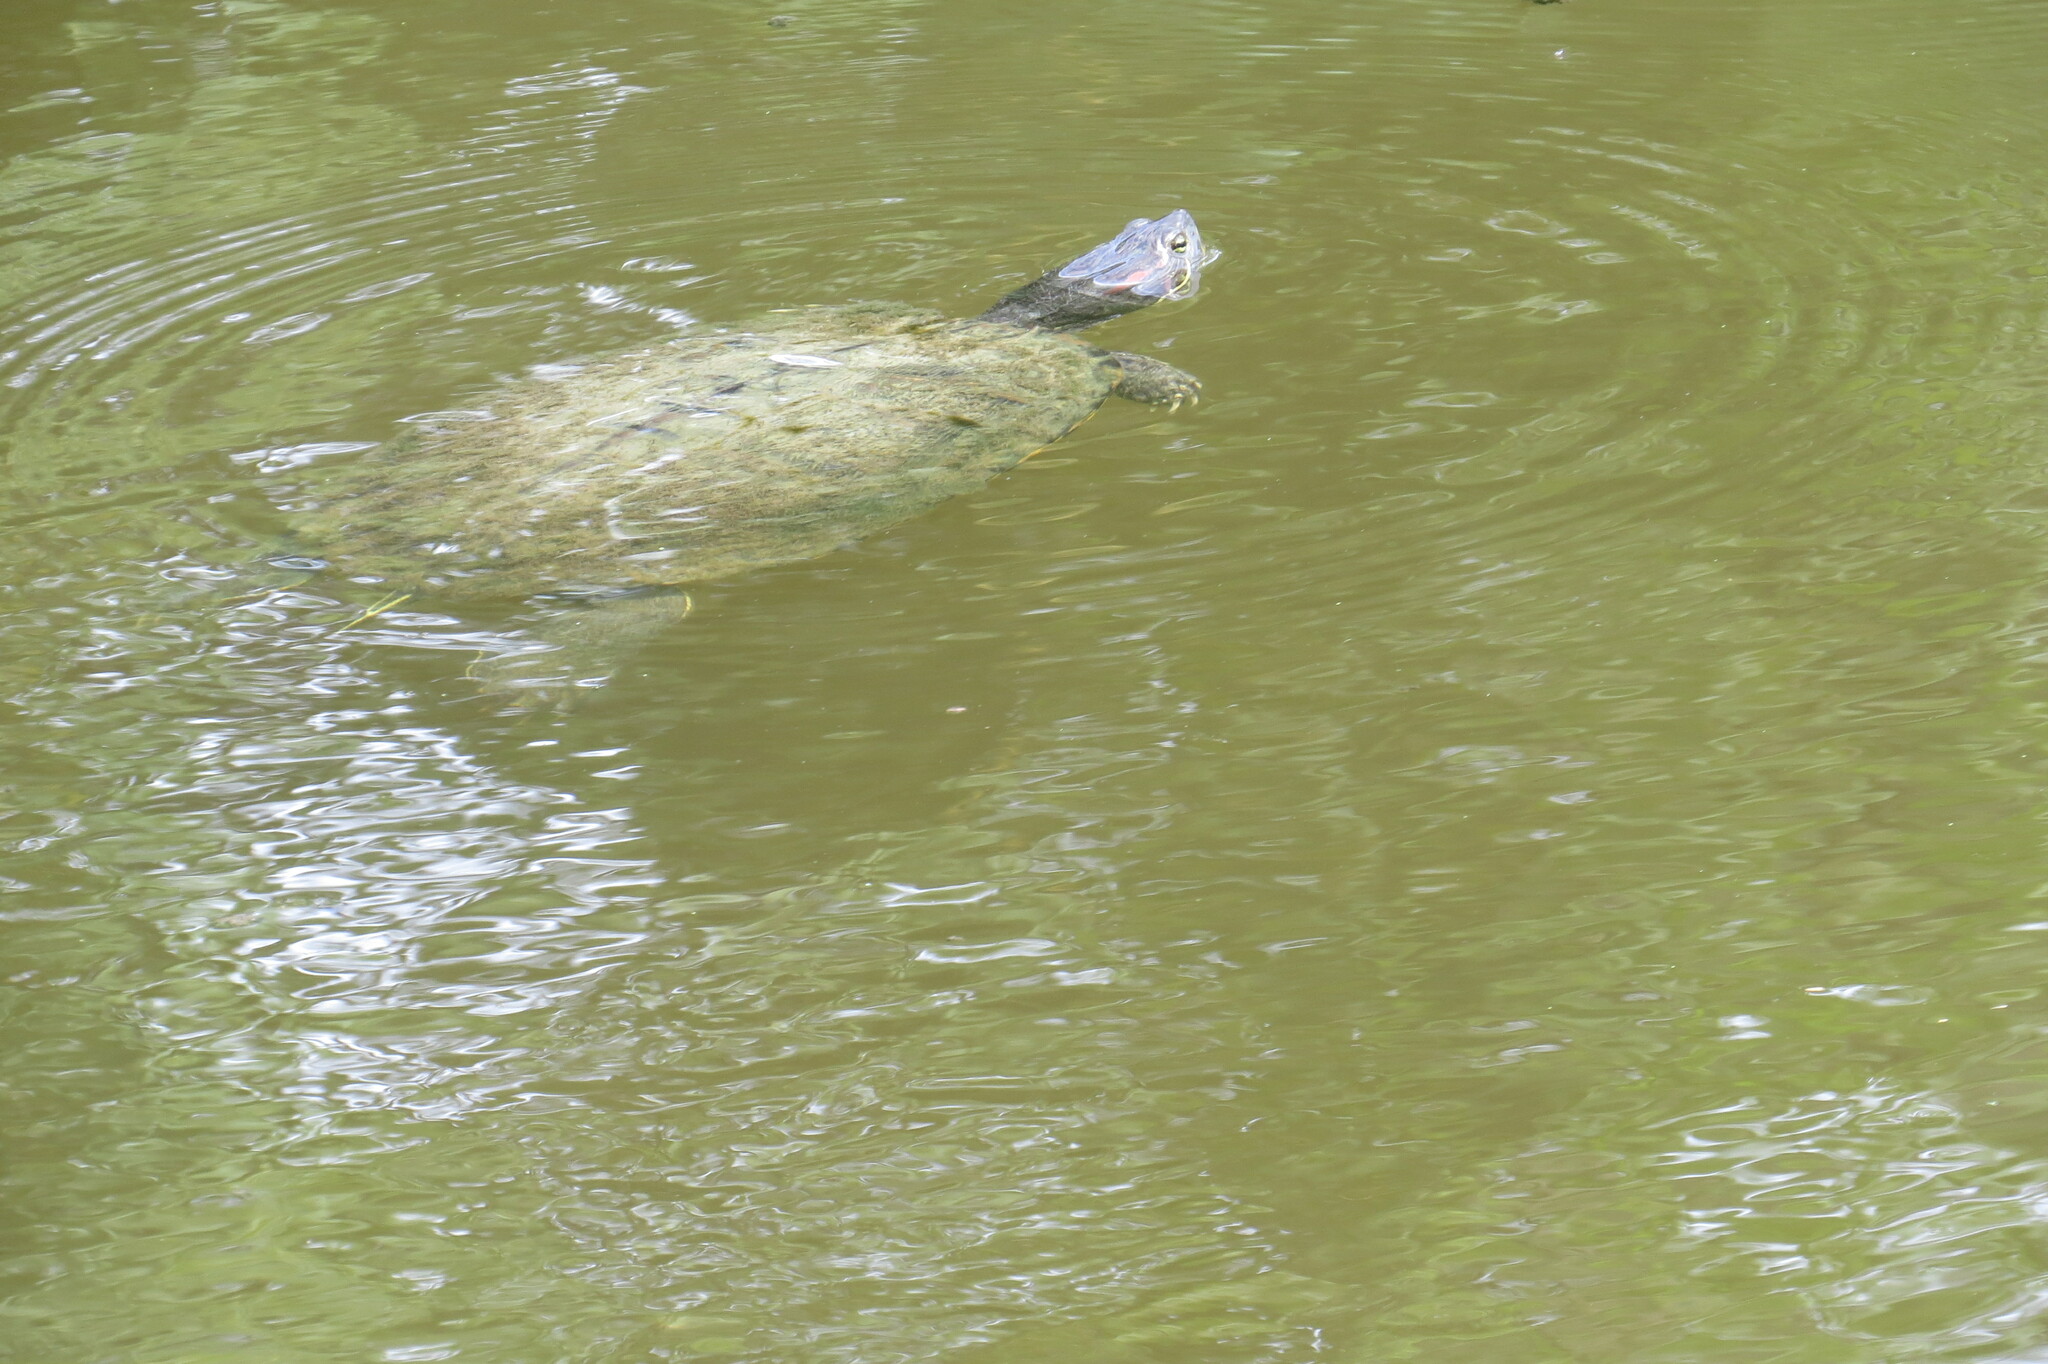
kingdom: Animalia
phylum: Chordata
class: Testudines
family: Emydidae
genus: Trachemys
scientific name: Trachemys scripta
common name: Slider
